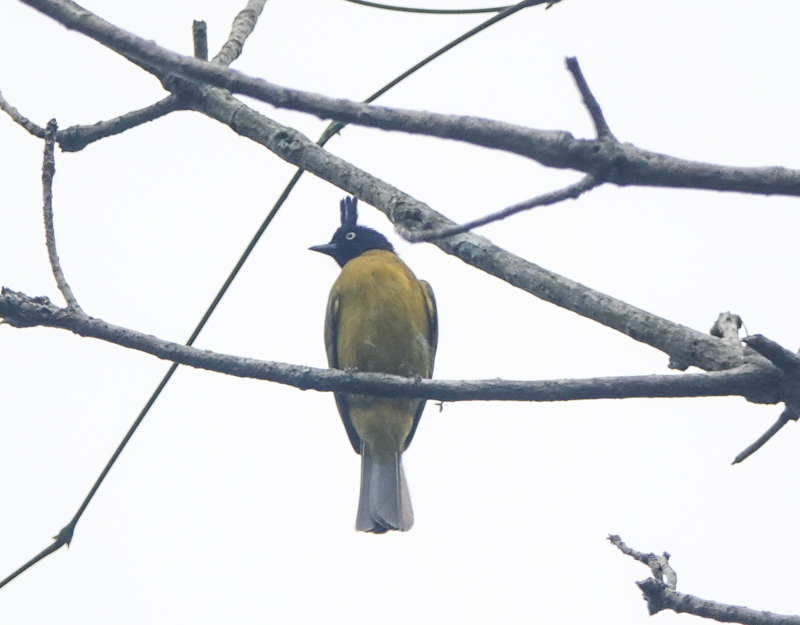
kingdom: Animalia
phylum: Chordata
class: Aves
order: Passeriformes
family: Pycnonotidae
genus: Pycnonotus
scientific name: Pycnonotus flaviventris
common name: Black-crested bulbul
